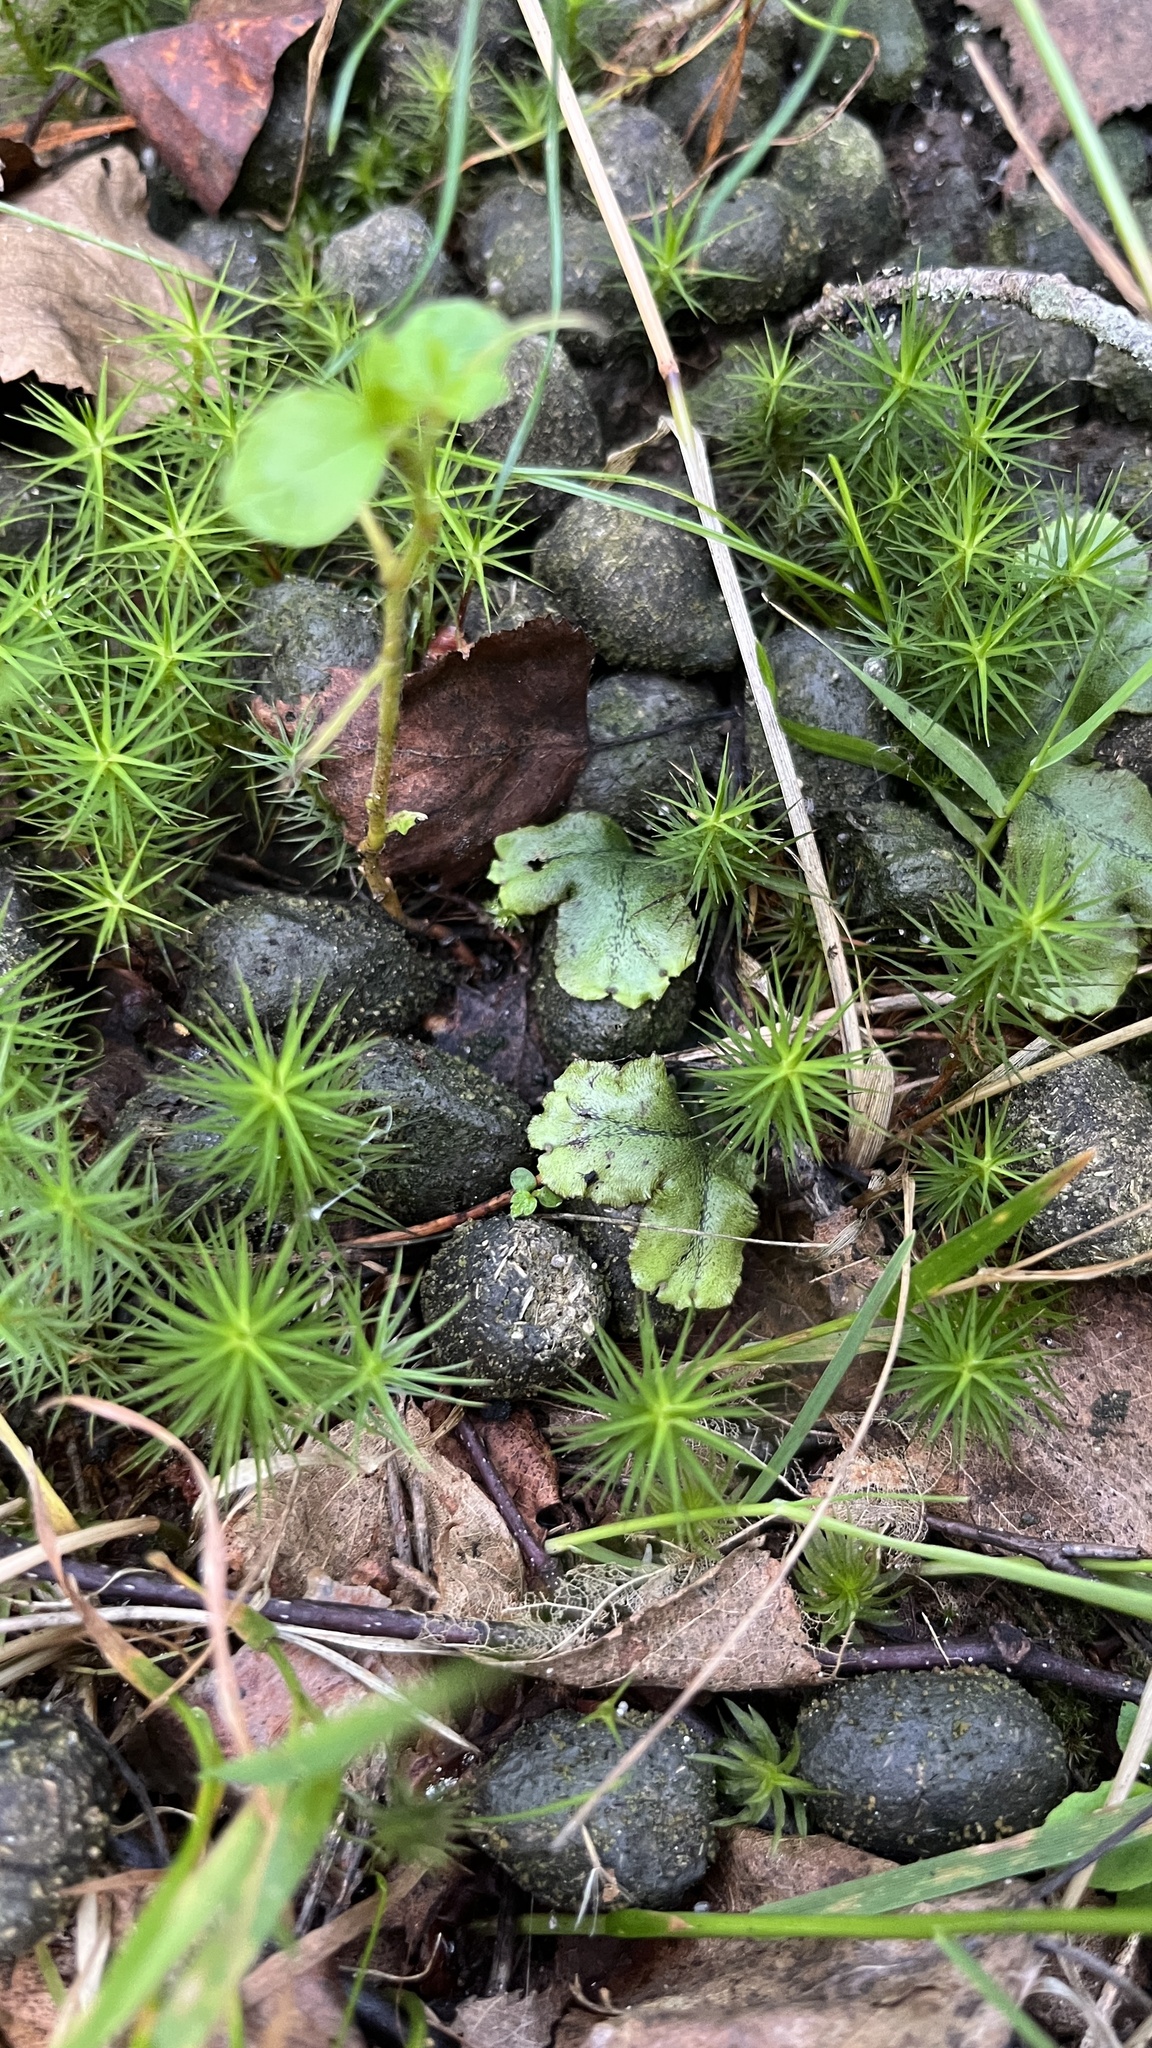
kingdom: Plantae
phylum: Marchantiophyta
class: Marchantiopsida
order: Marchantiales
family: Marchantiaceae
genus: Marchantia
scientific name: Marchantia polymorpha
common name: Common liverwort
